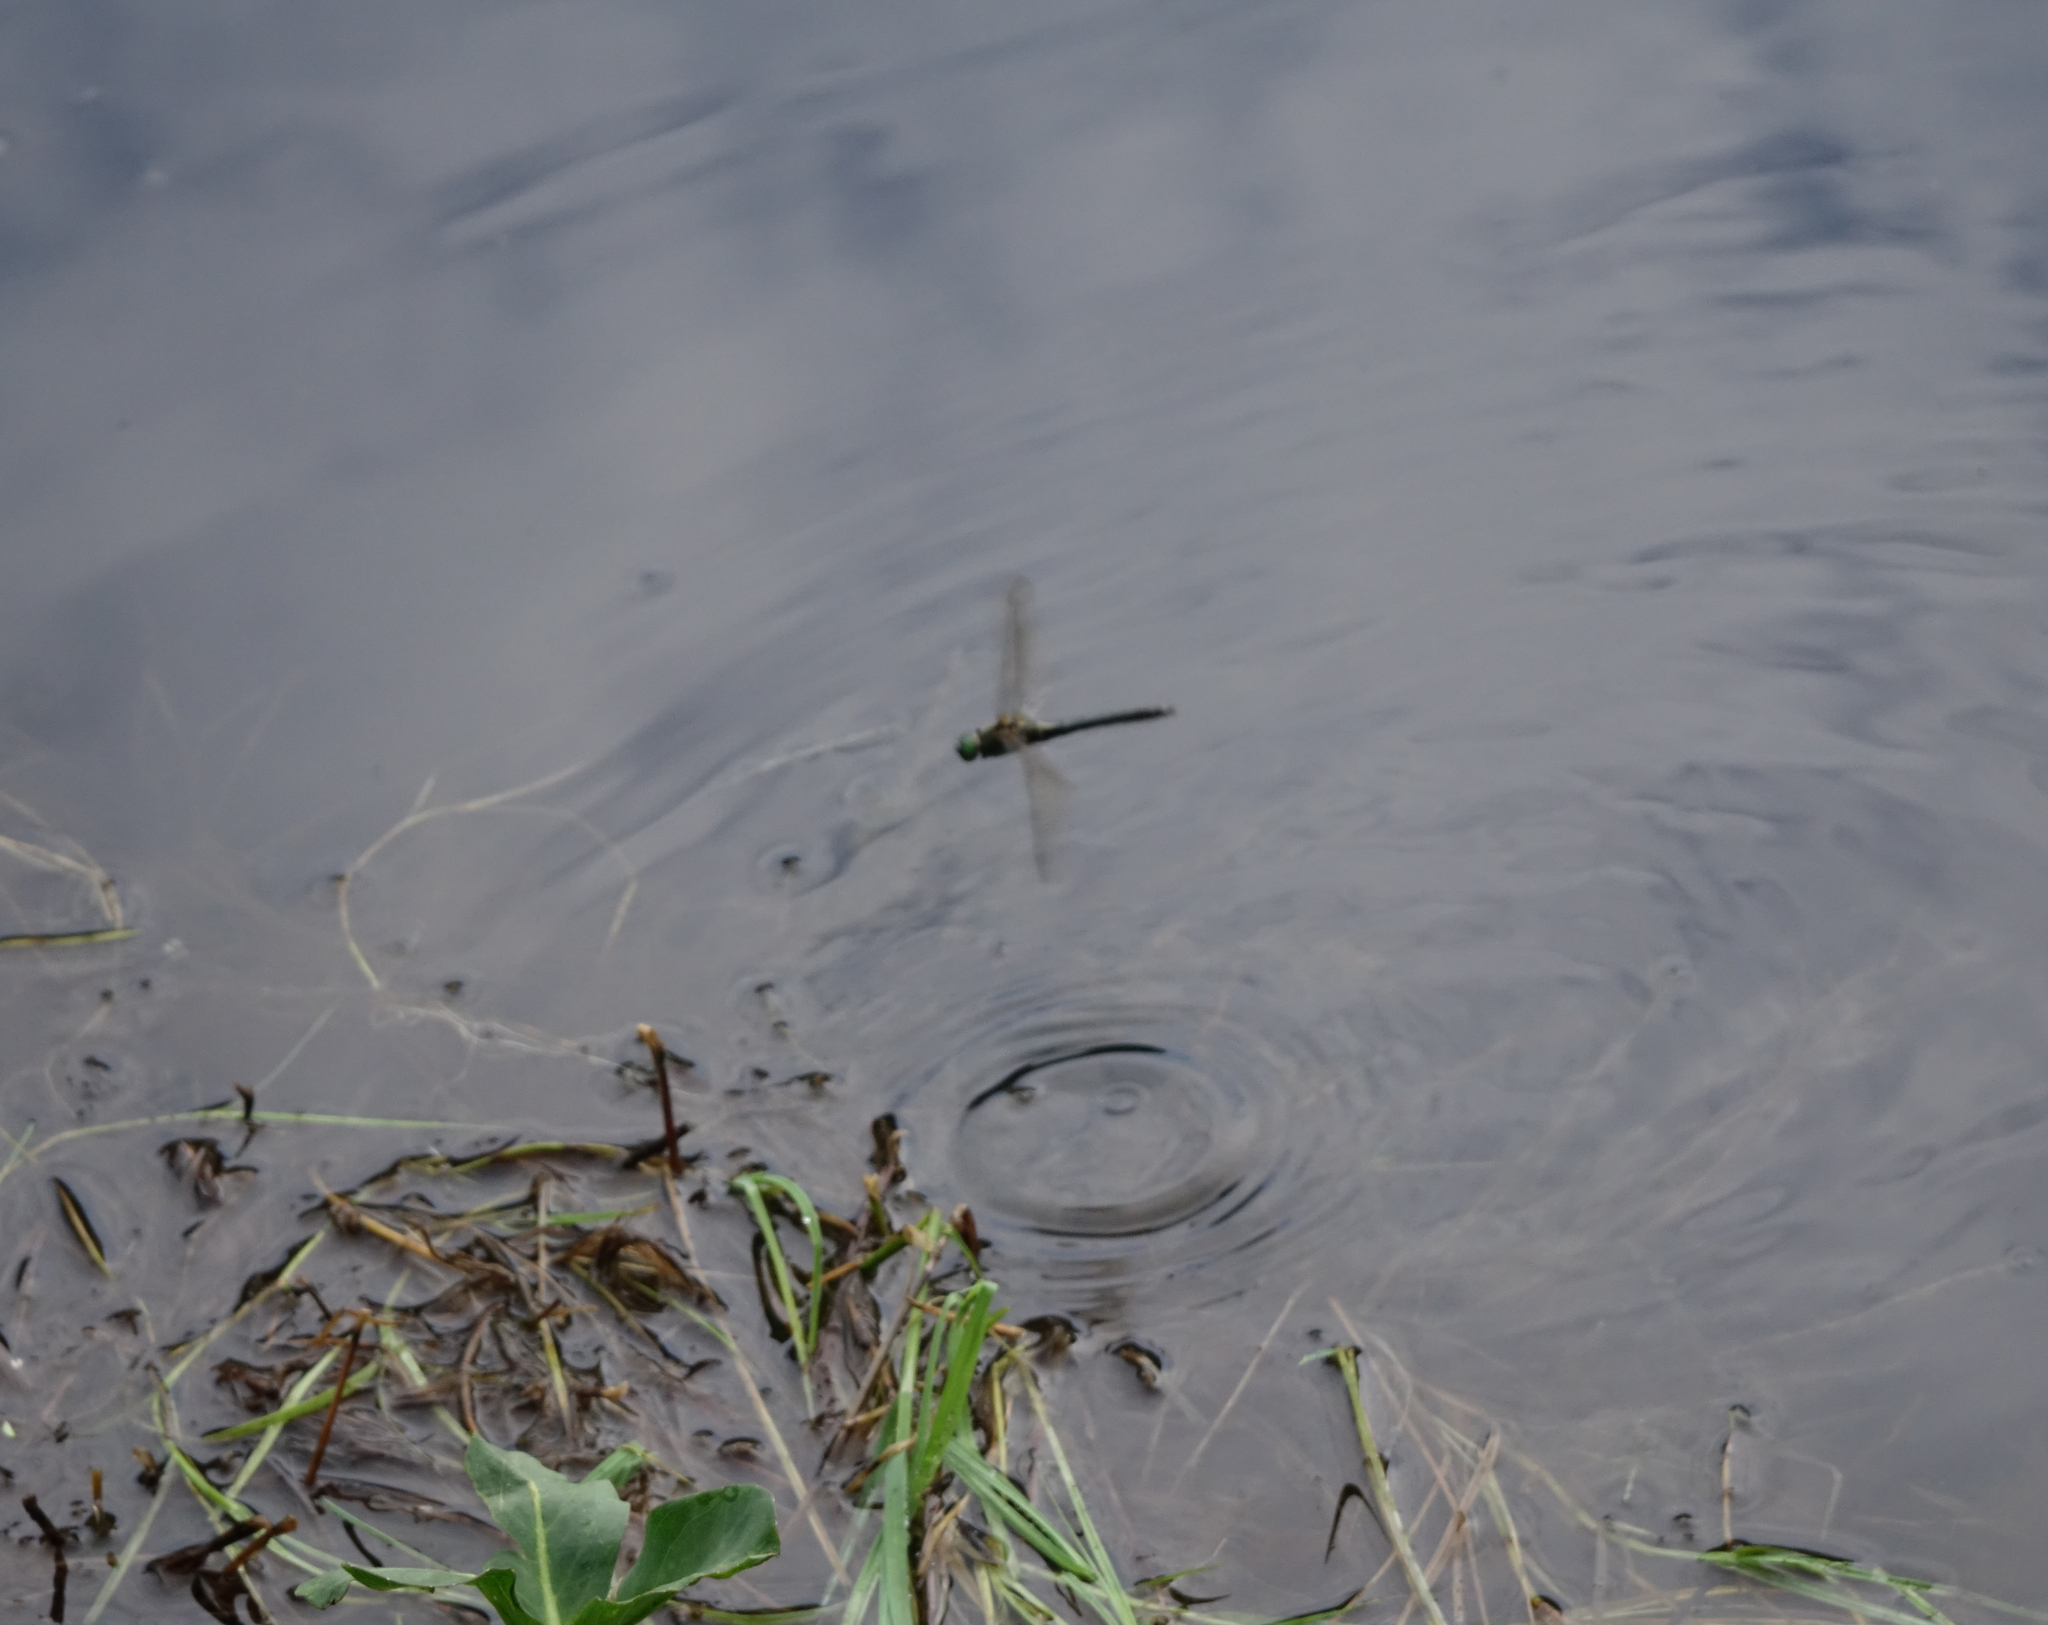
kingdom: Animalia
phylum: Arthropoda
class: Insecta
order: Odonata
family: Corduliidae
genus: Cordulia
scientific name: Cordulia aenea
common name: Downy emerald
